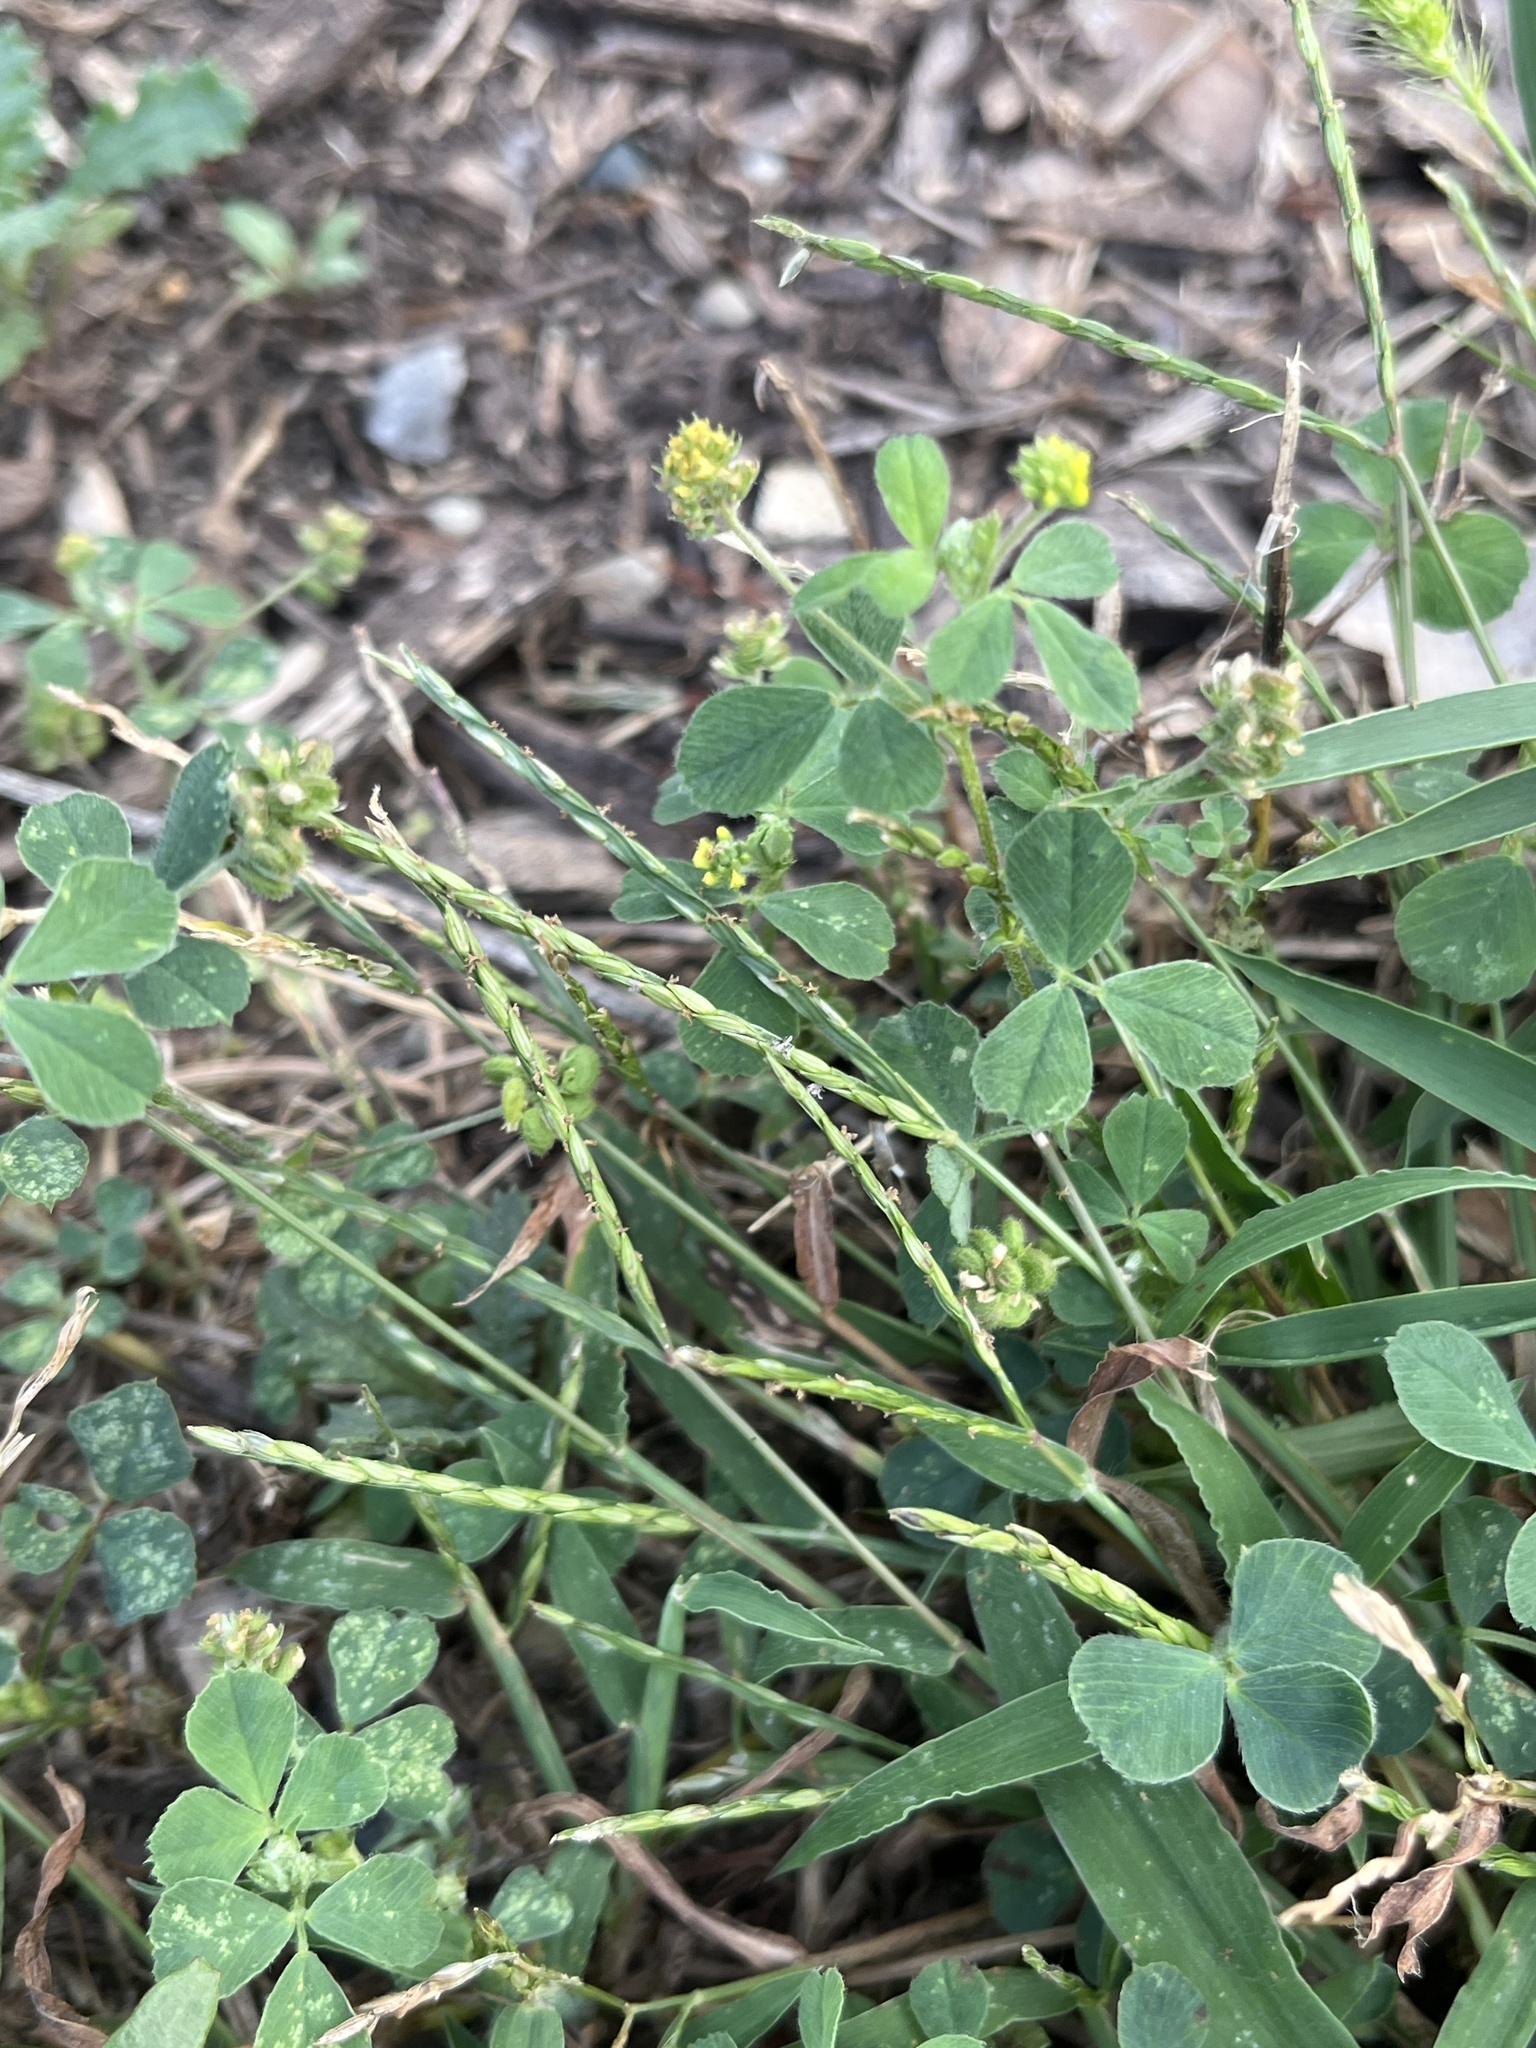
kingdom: Plantae
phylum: Tracheophyta
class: Magnoliopsida
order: Fabales
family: Fabaceae
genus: Medicago
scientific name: Medicago lupulina
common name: Black medick
